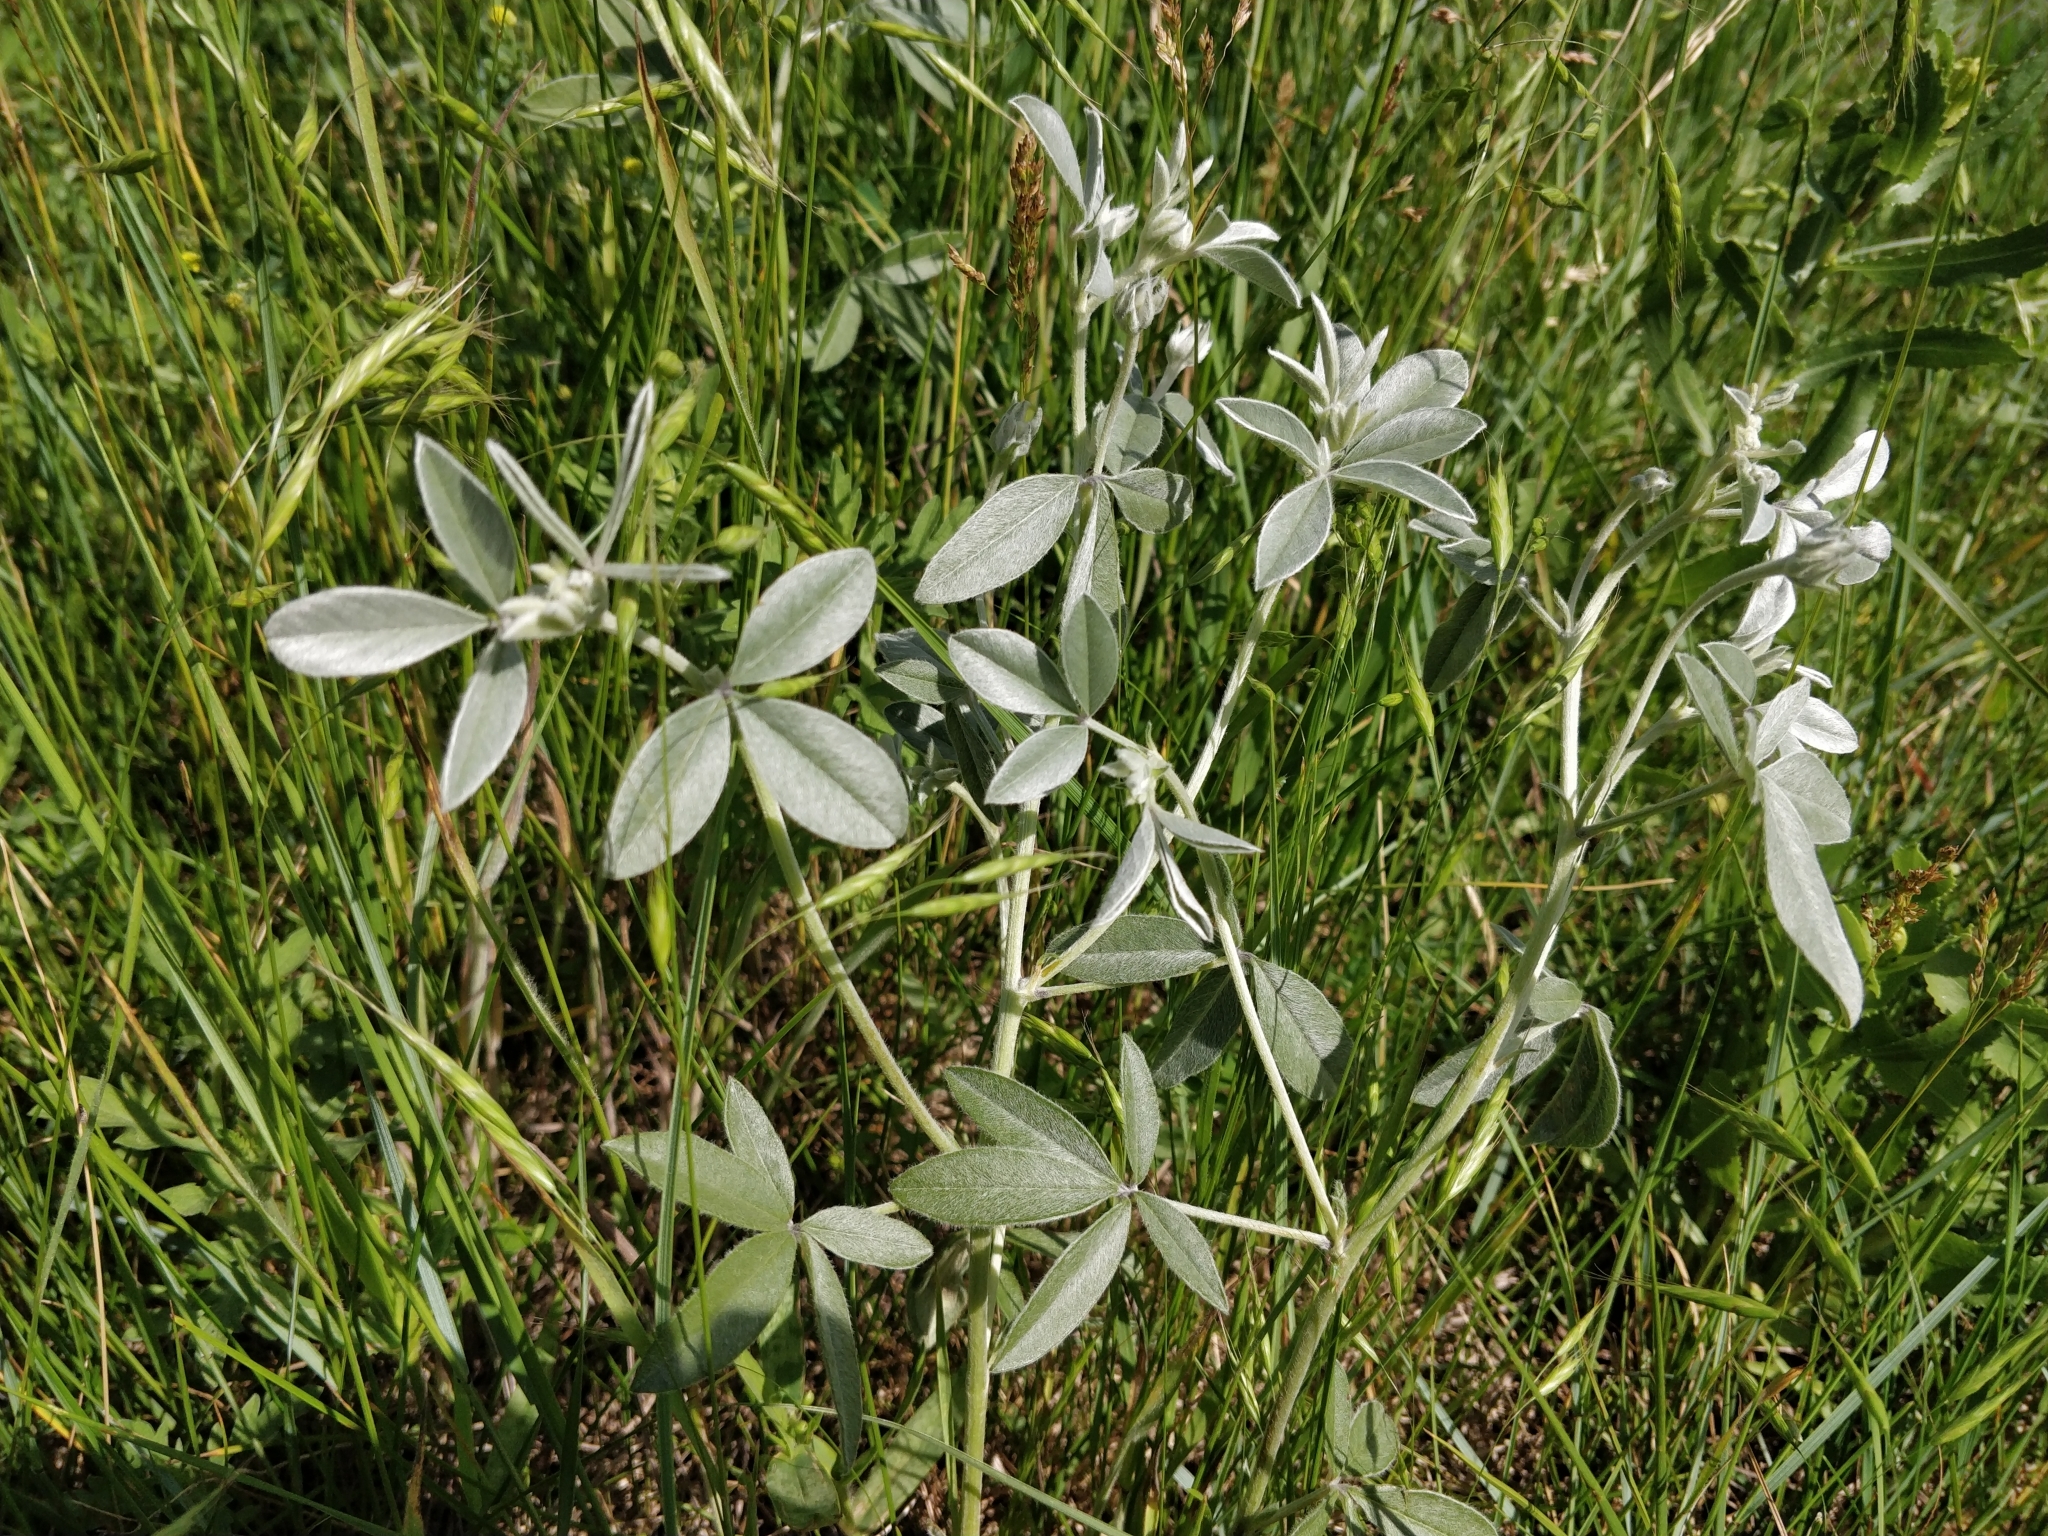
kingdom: Plantae
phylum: Tracheophyta
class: Magnoliopsida
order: Fabales
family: Fabaceae
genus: Pediomelum
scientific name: Pediomelum argophyllum
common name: Silver-leaved indian breadroot
